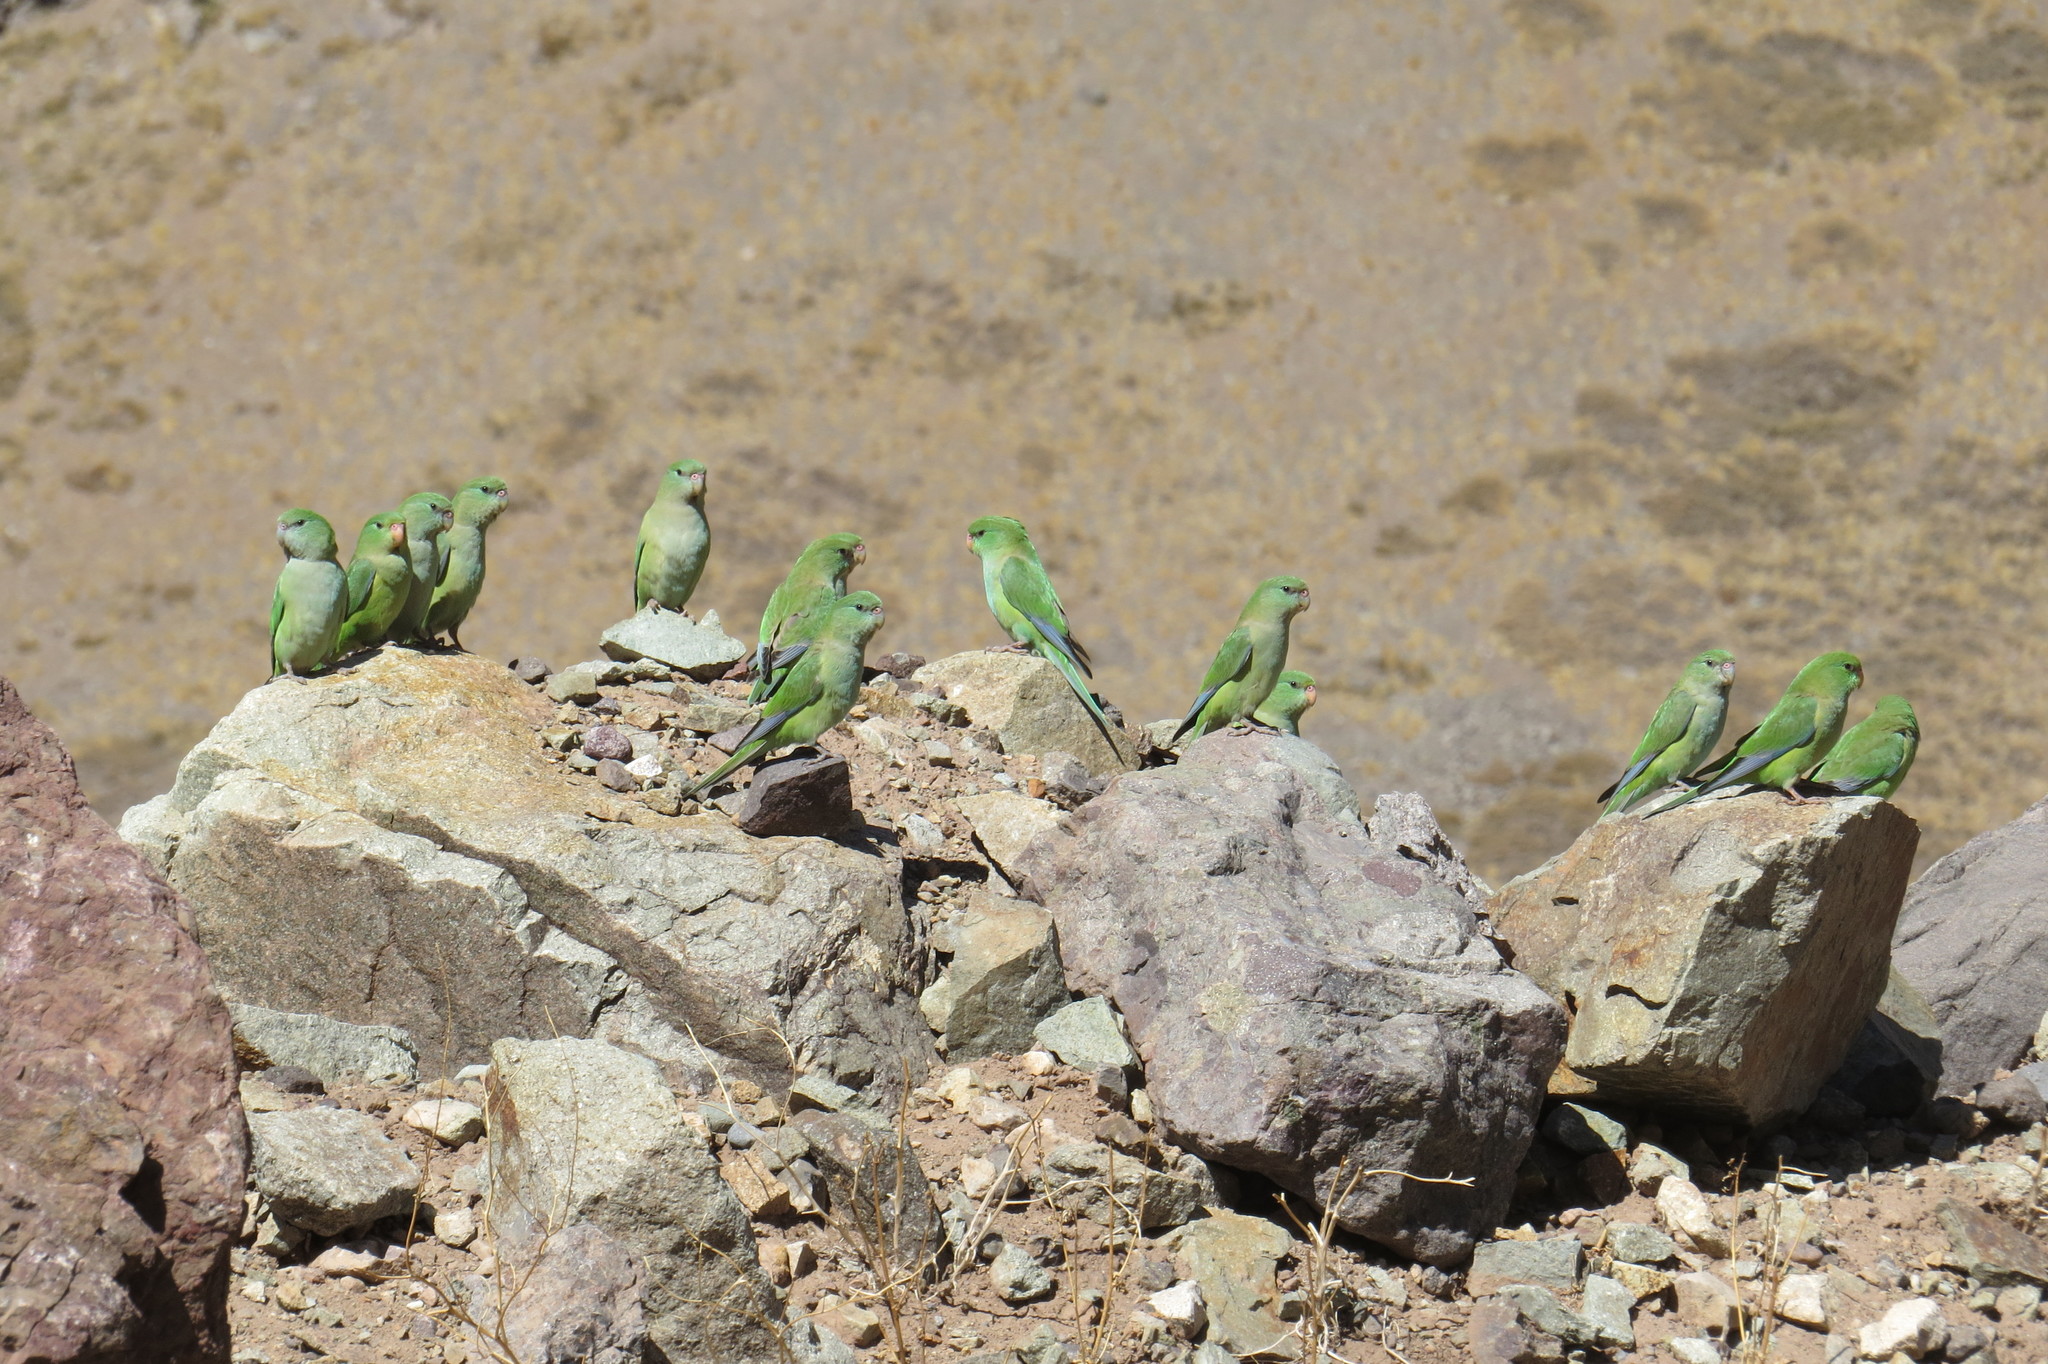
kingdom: Animalia
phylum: Chordata
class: Aves
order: Psittaciformes
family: Psittacidae
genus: Psilopsiagon
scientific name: Psilopsiagon aurifrons
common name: Mountain parakeet
